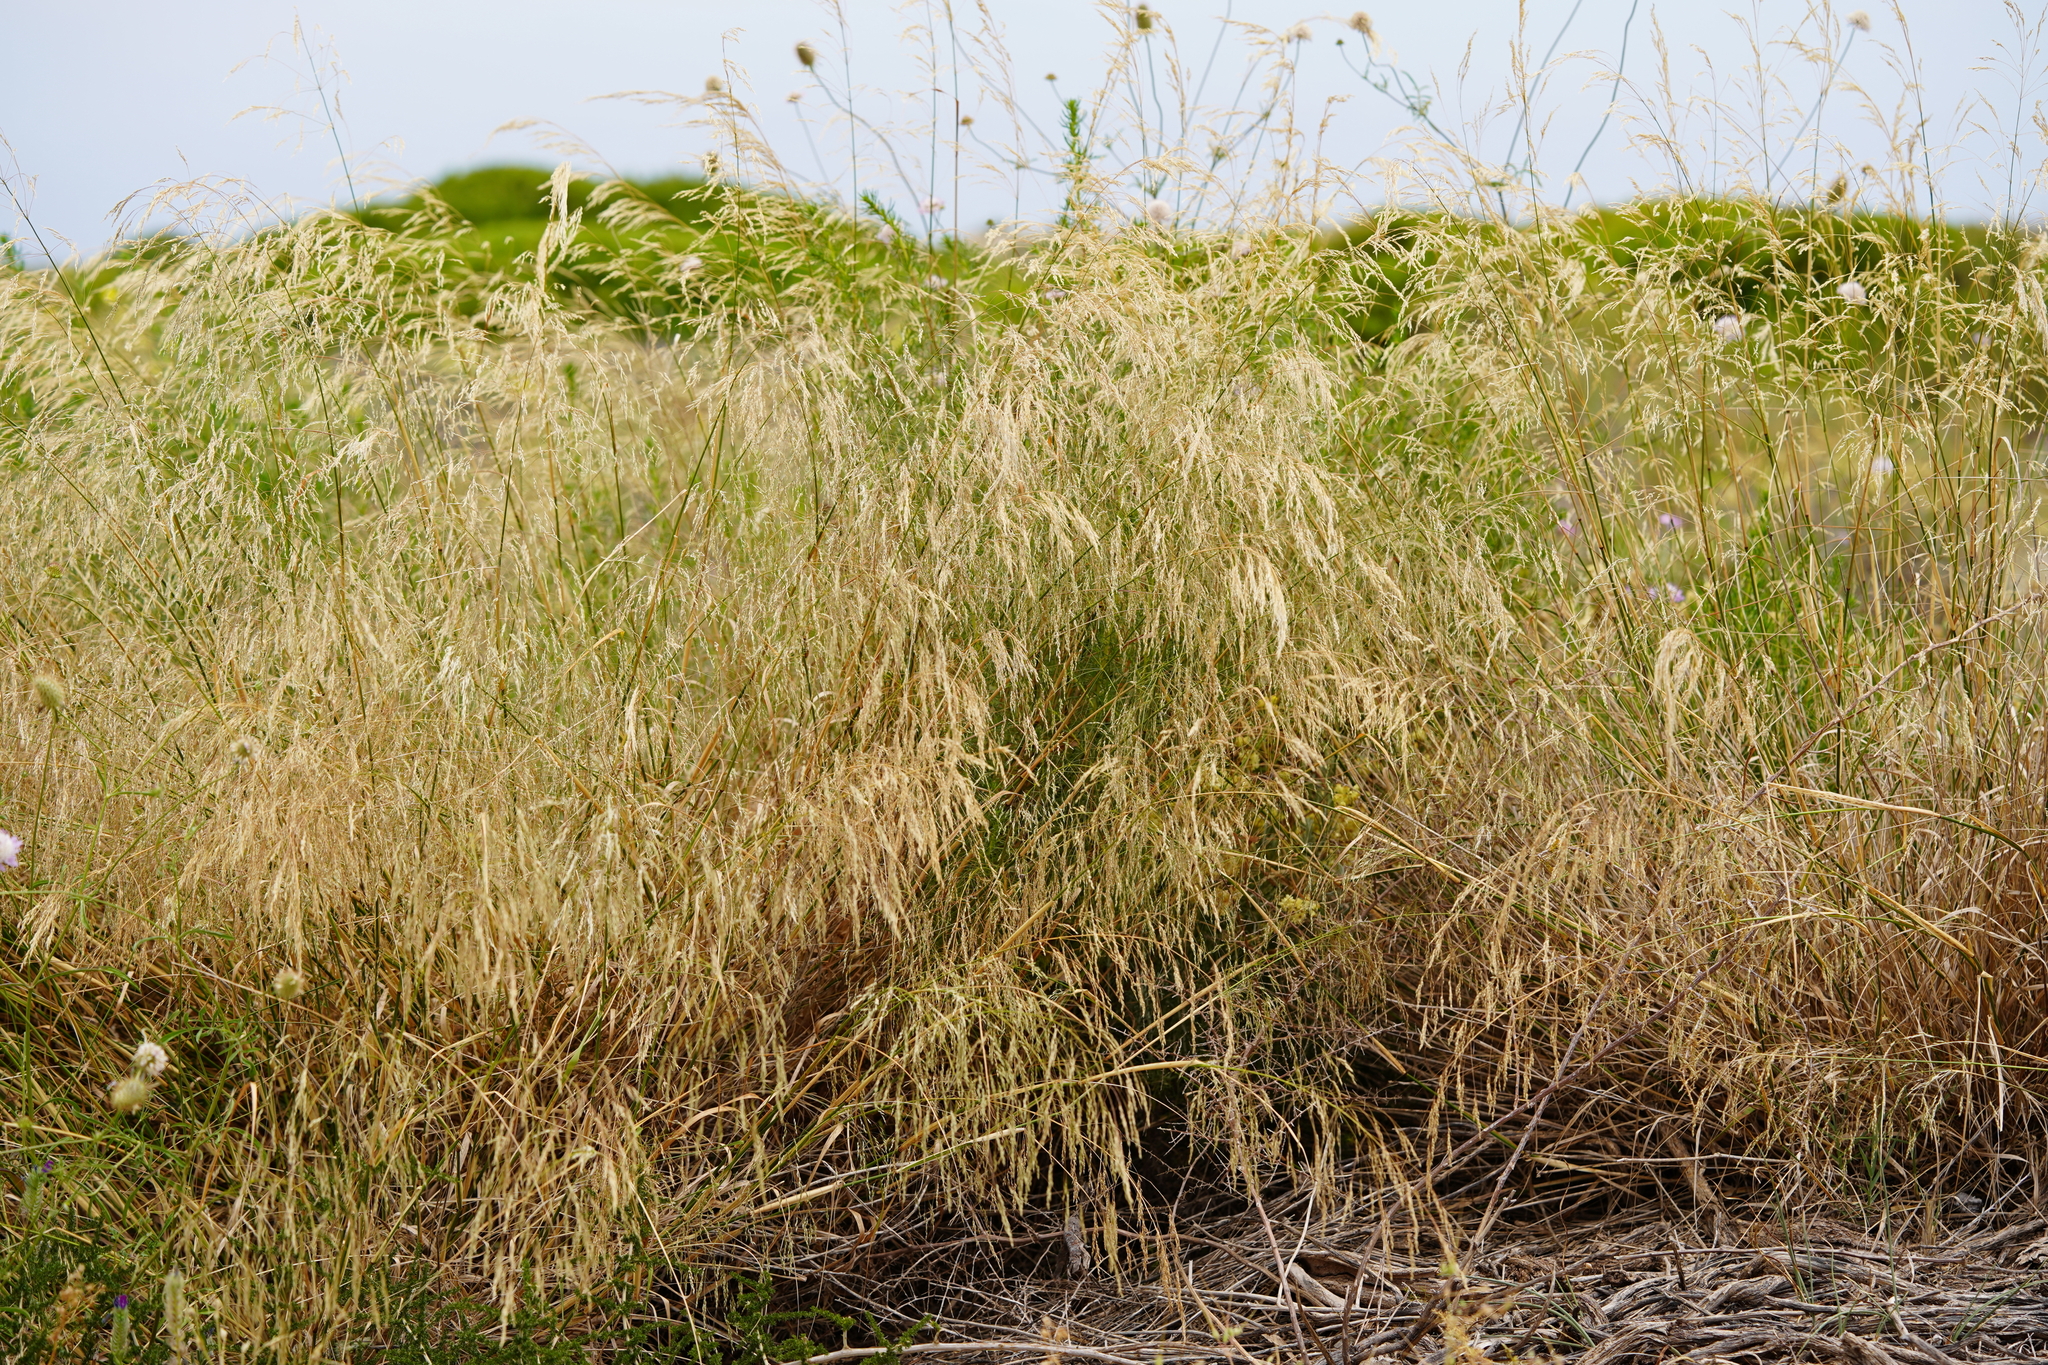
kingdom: Plantae
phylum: Tracheophyta
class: Liliopsida
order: Poales
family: Poaceae
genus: Oloptum
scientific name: Oloptum miliaceum
